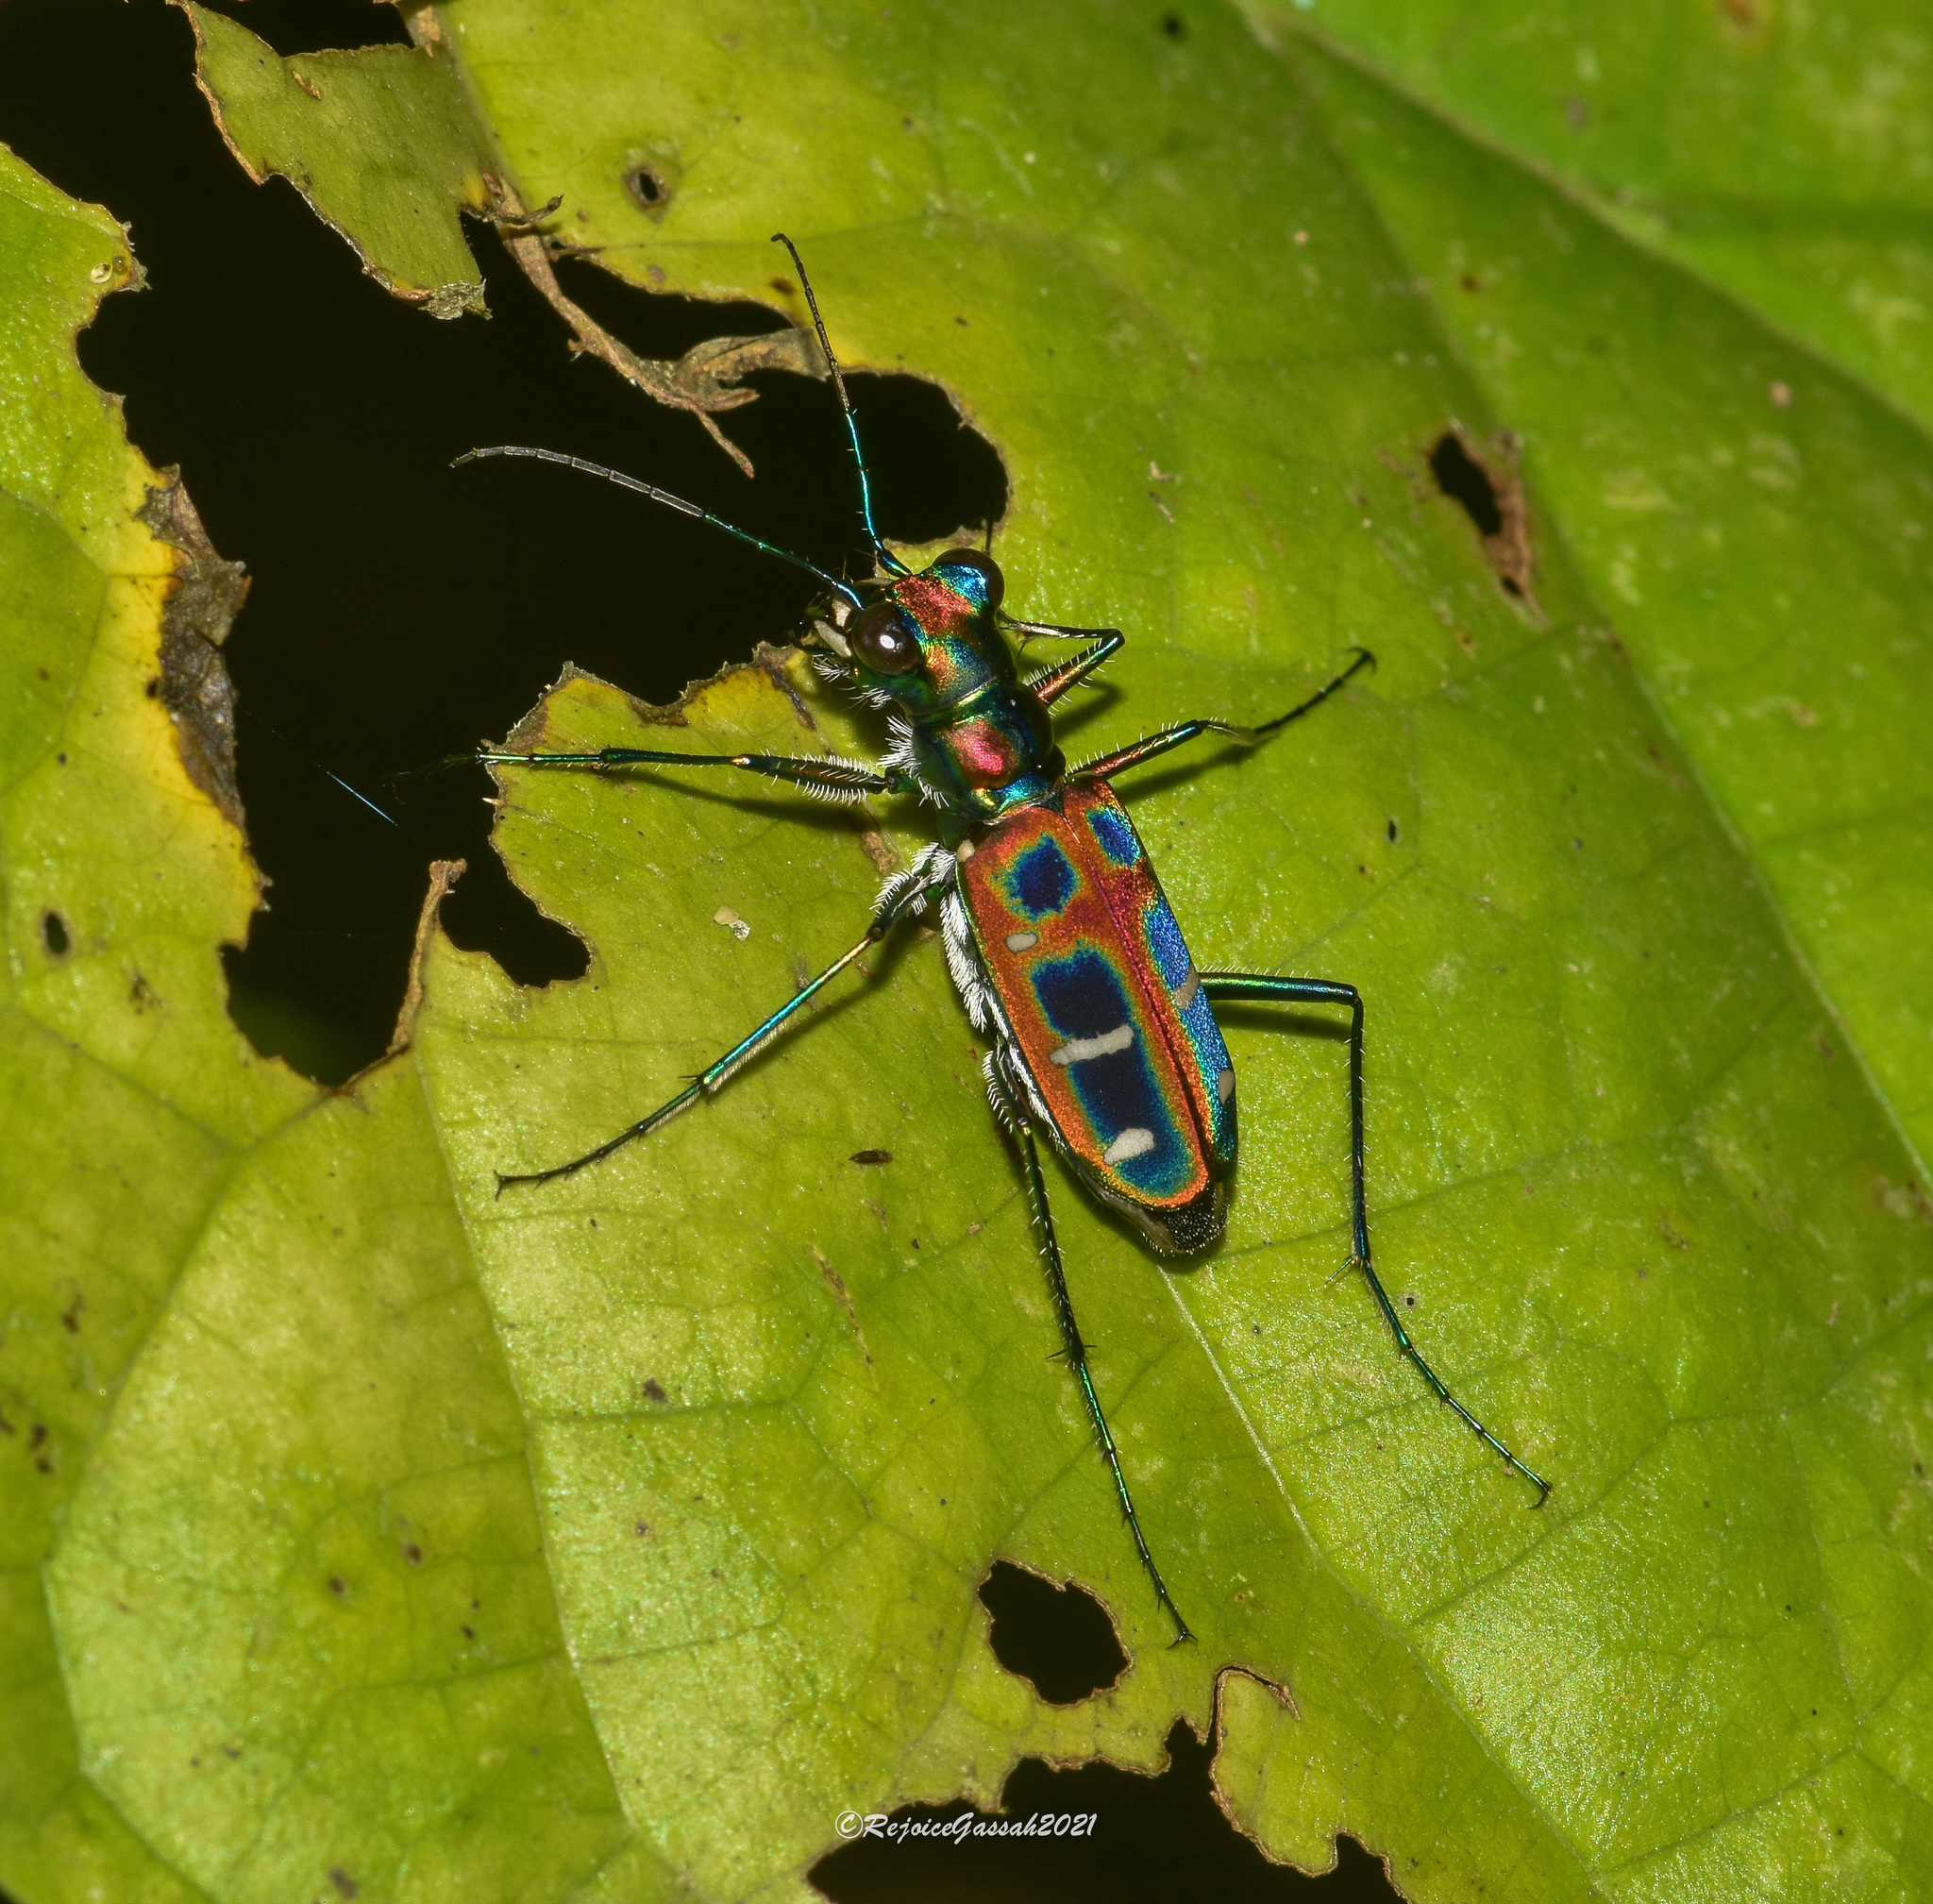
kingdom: Animalia
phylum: Arthropoda
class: Insecta
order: Coleoptera
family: Carabidae
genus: Cicindela
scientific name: Cicindela barmanica
